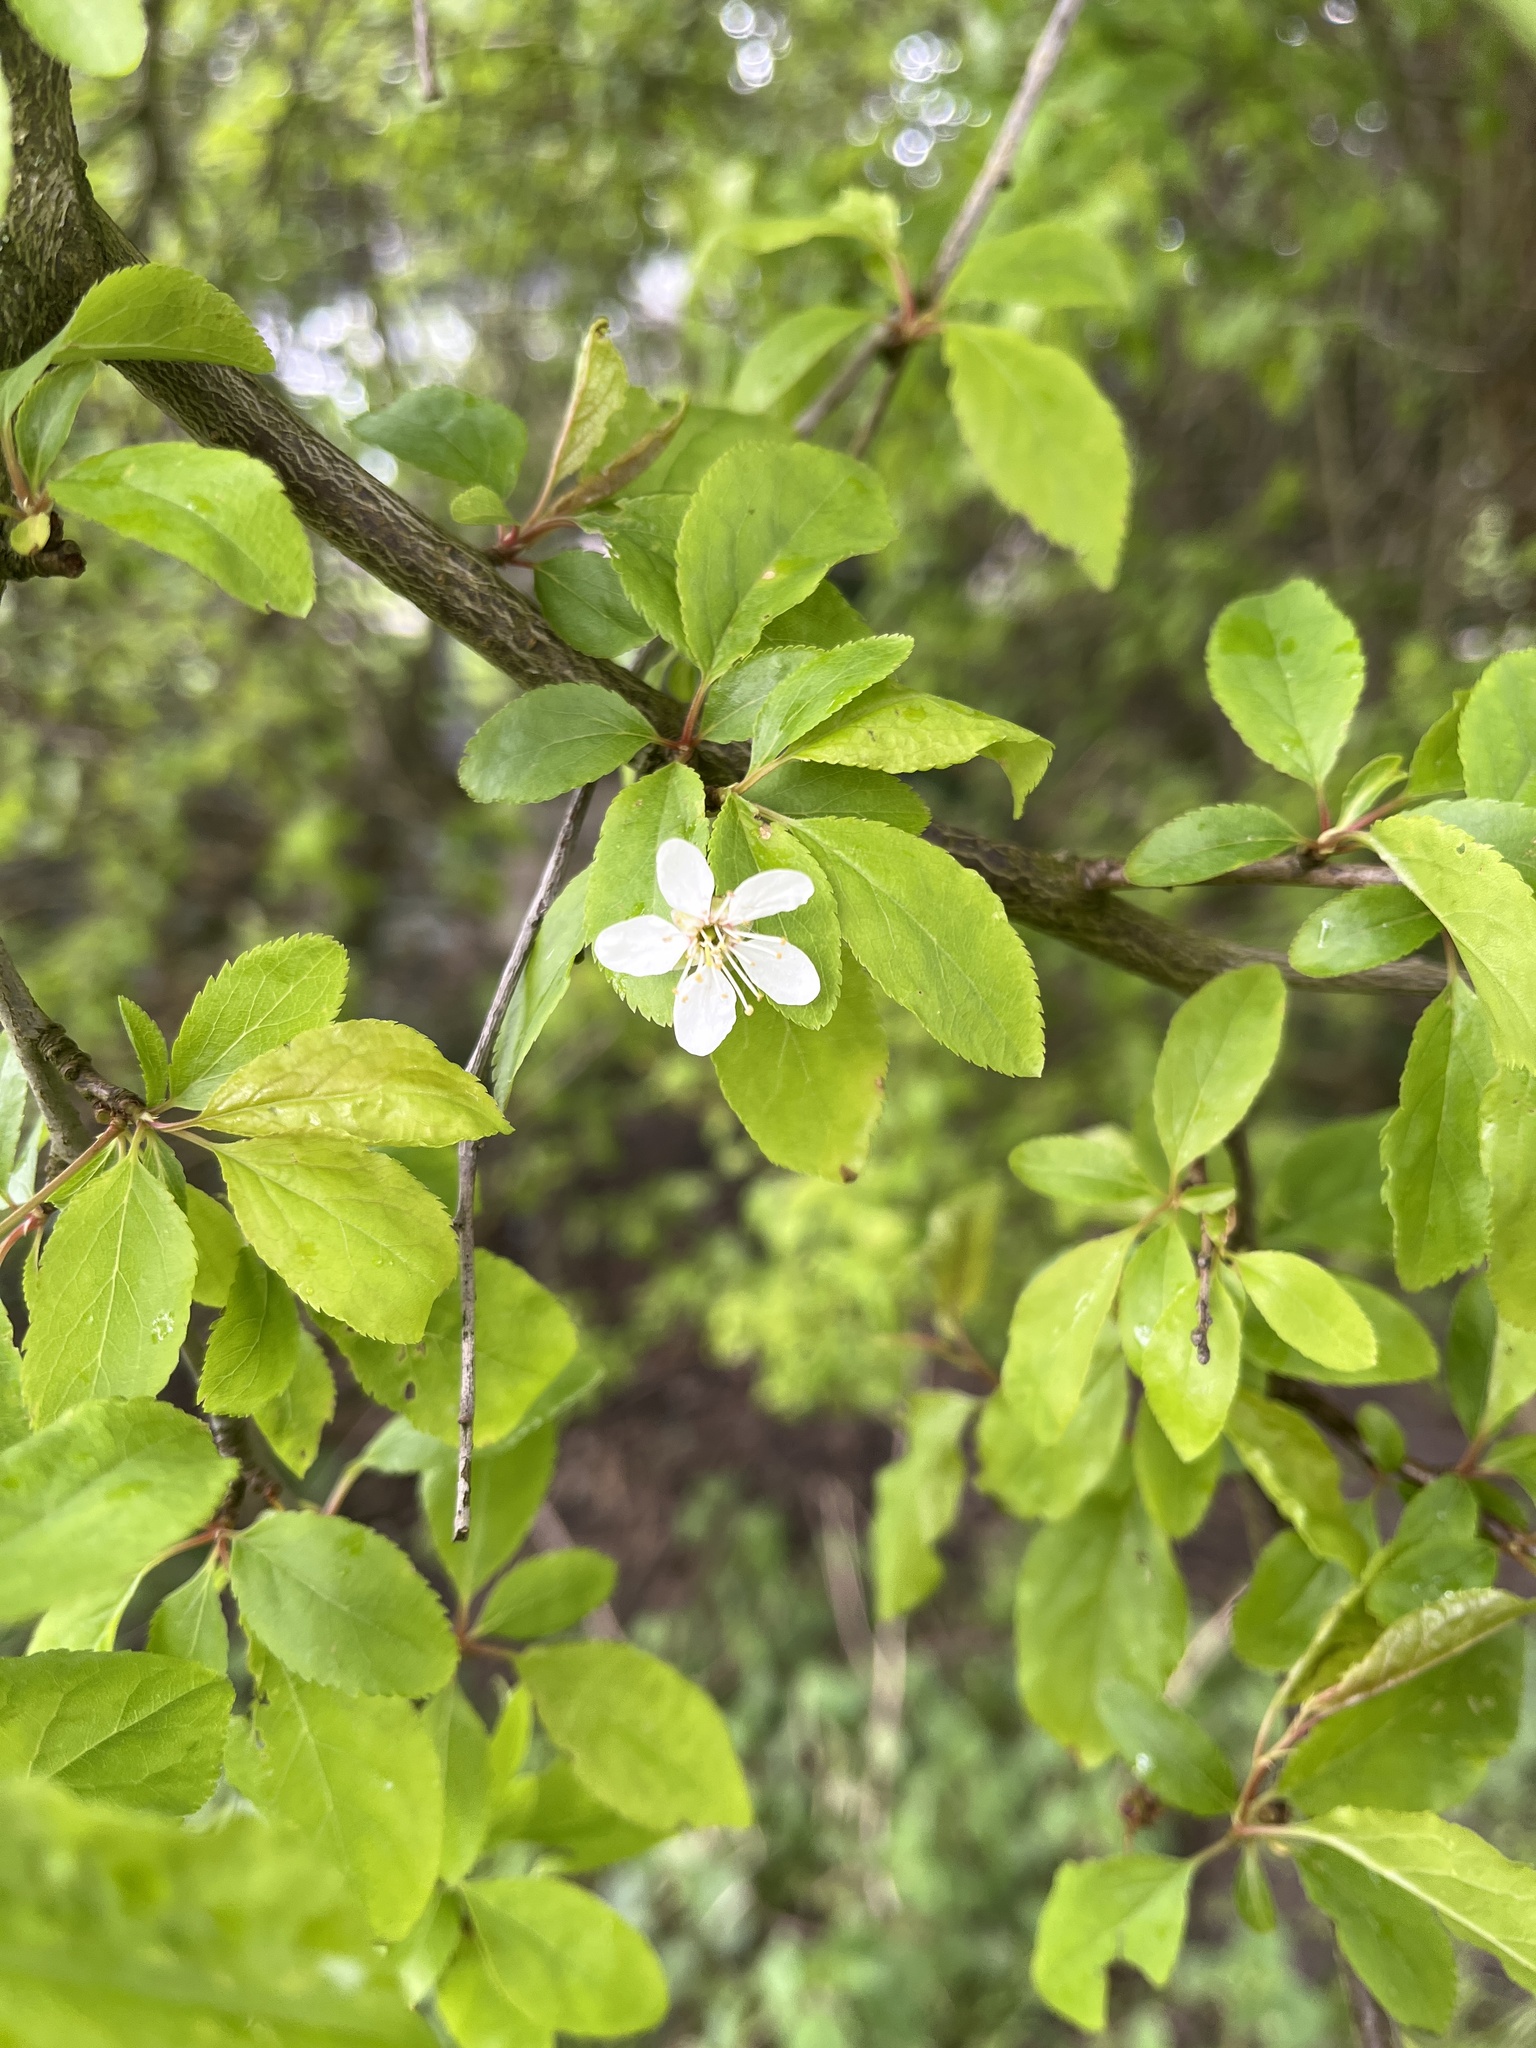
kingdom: Plantae
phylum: Tracheophyta
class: Magnoliopsida
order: Rosales
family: Rosaceae
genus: Prunus
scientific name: Prunus cerasifera
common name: Cherry plum
